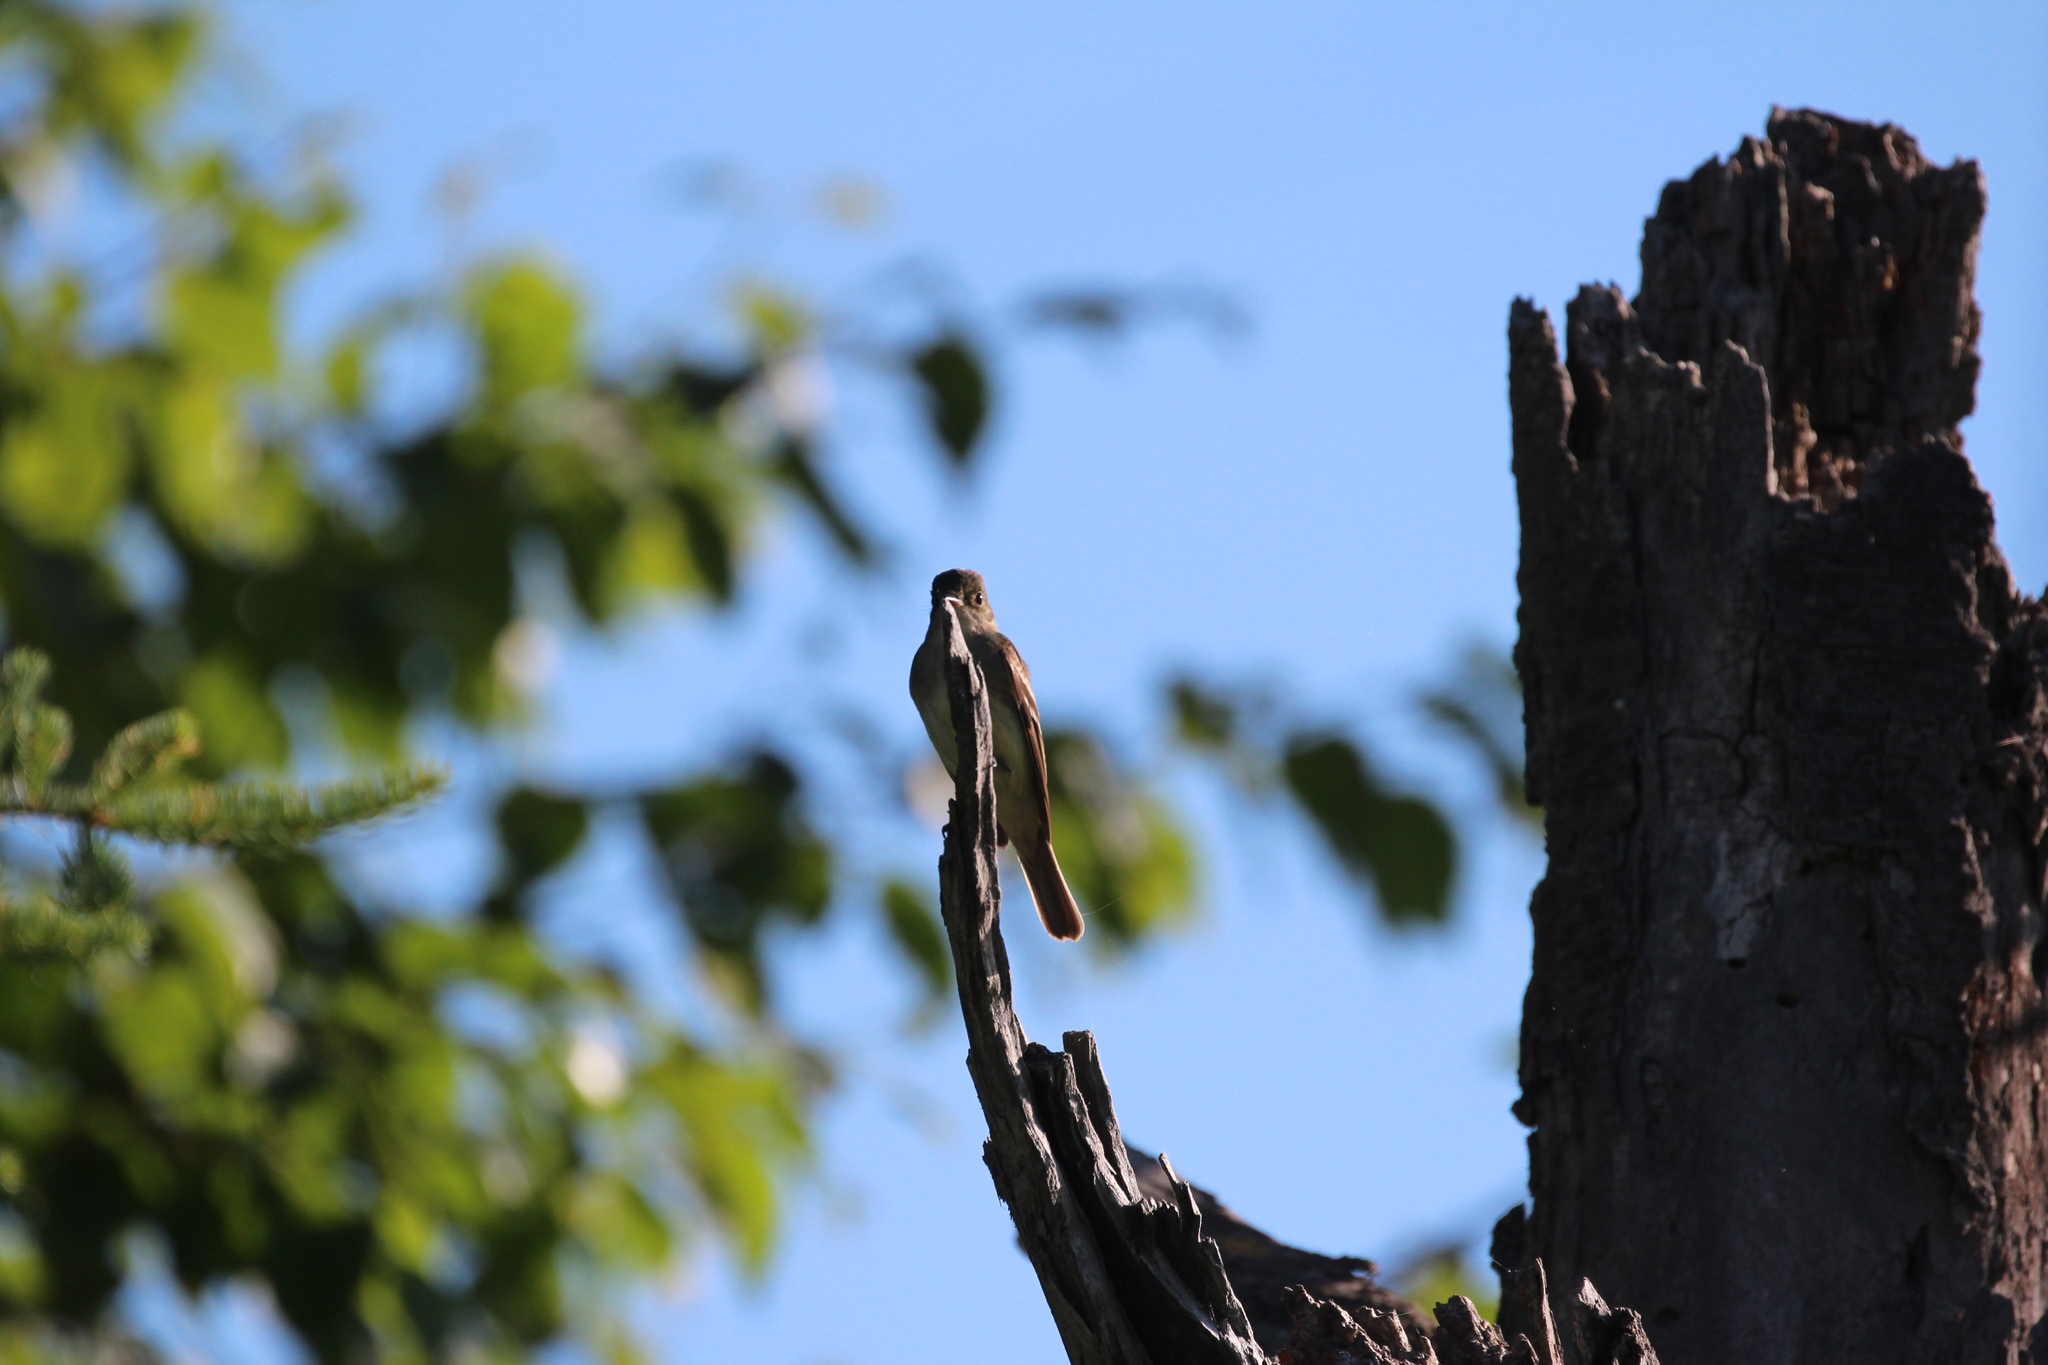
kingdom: Animalia
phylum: Chordata
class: Aves
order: Passeriformes
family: Tyrannidae
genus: Contopus
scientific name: Contopus virens
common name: Eastern wood-pewee
